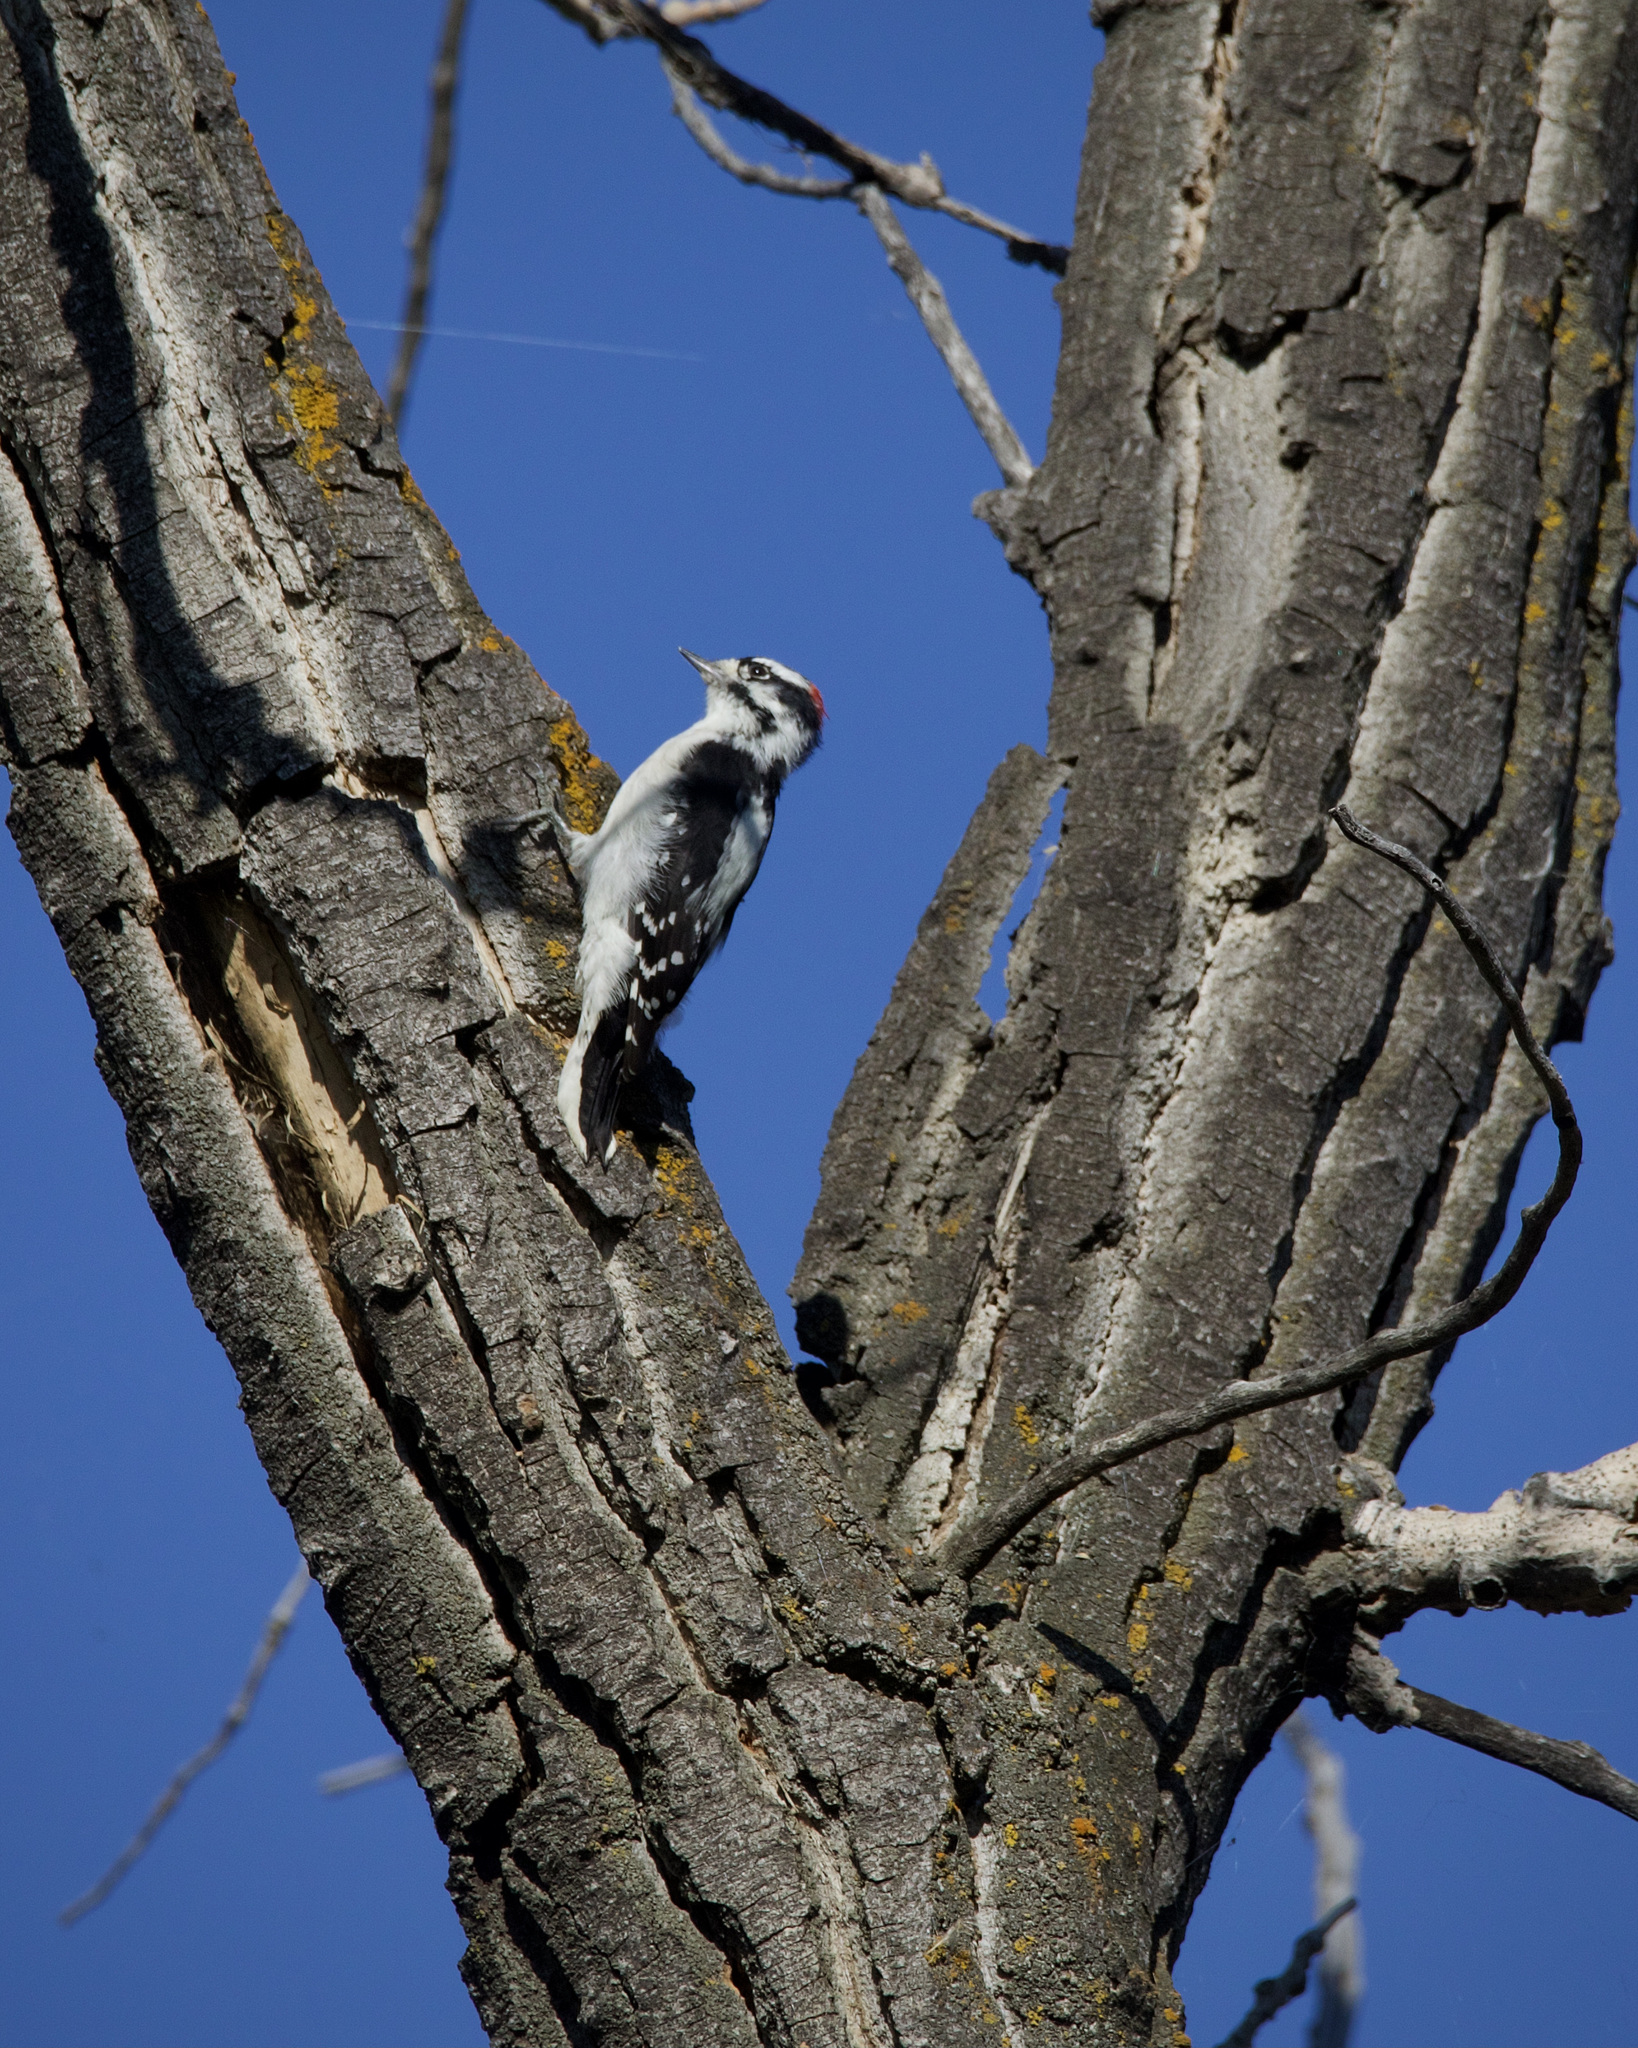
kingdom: Animalia
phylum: Chordata
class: Aves
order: Piciformes
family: Picidae
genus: Dryobates
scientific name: Dryobates pubescens
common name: Downy woodpecker
